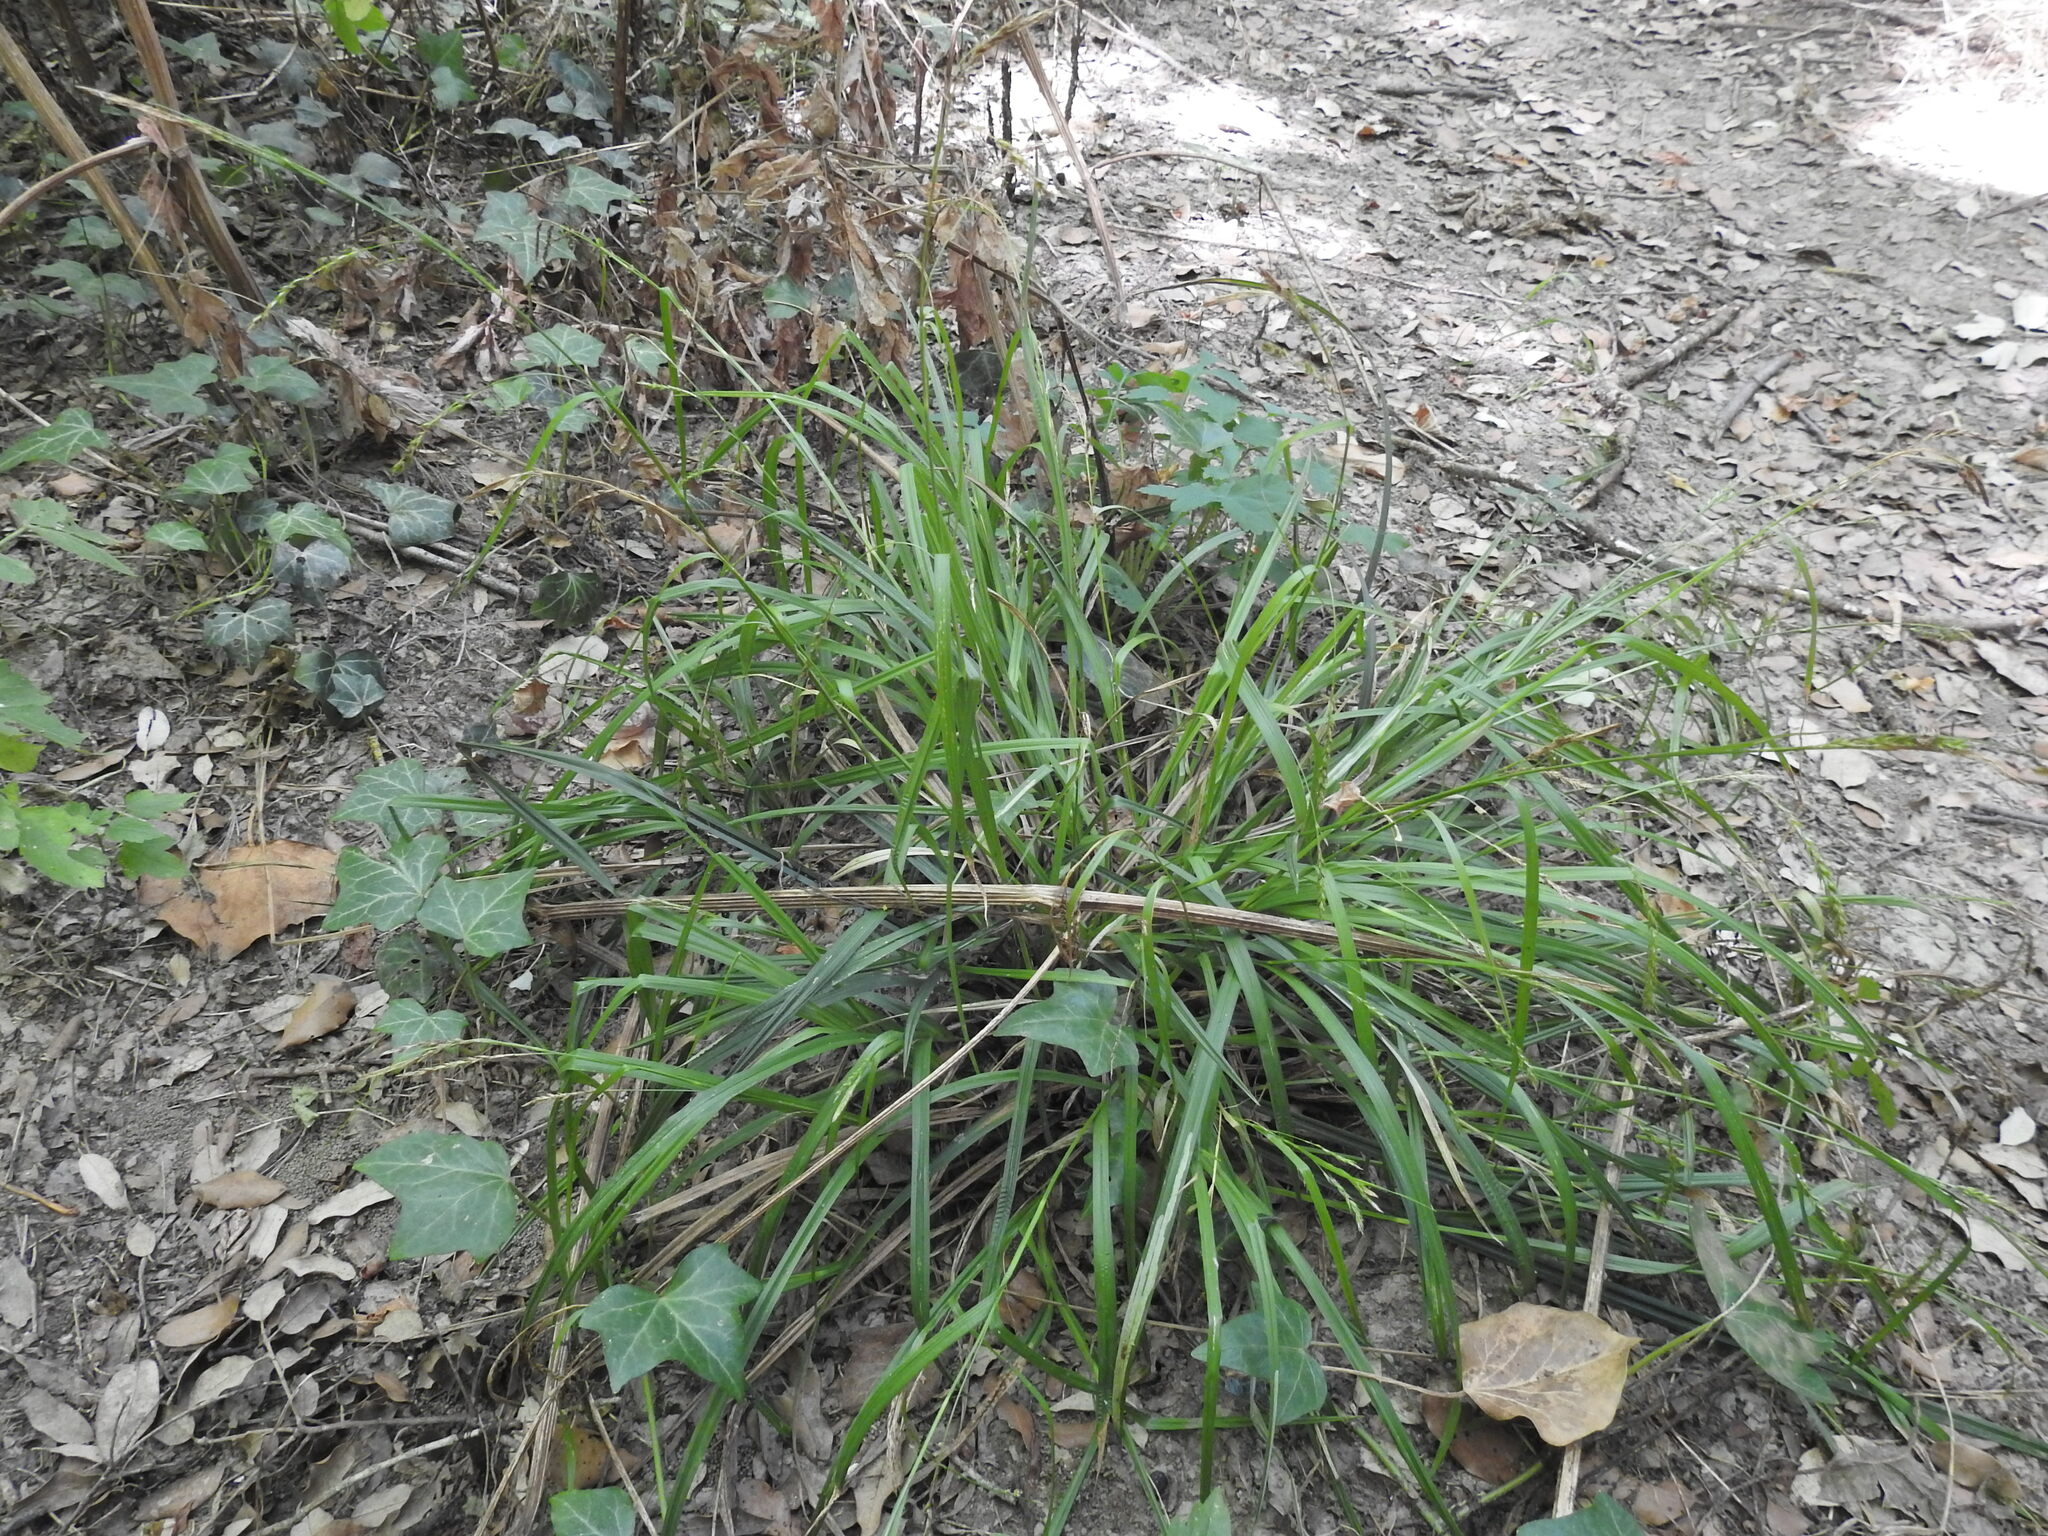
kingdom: Plantae
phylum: Tracheophyta
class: Liliopsida
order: Poales
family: Cyperaceae
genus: Carex
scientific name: Carex sylvatica
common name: Wood-sedge
